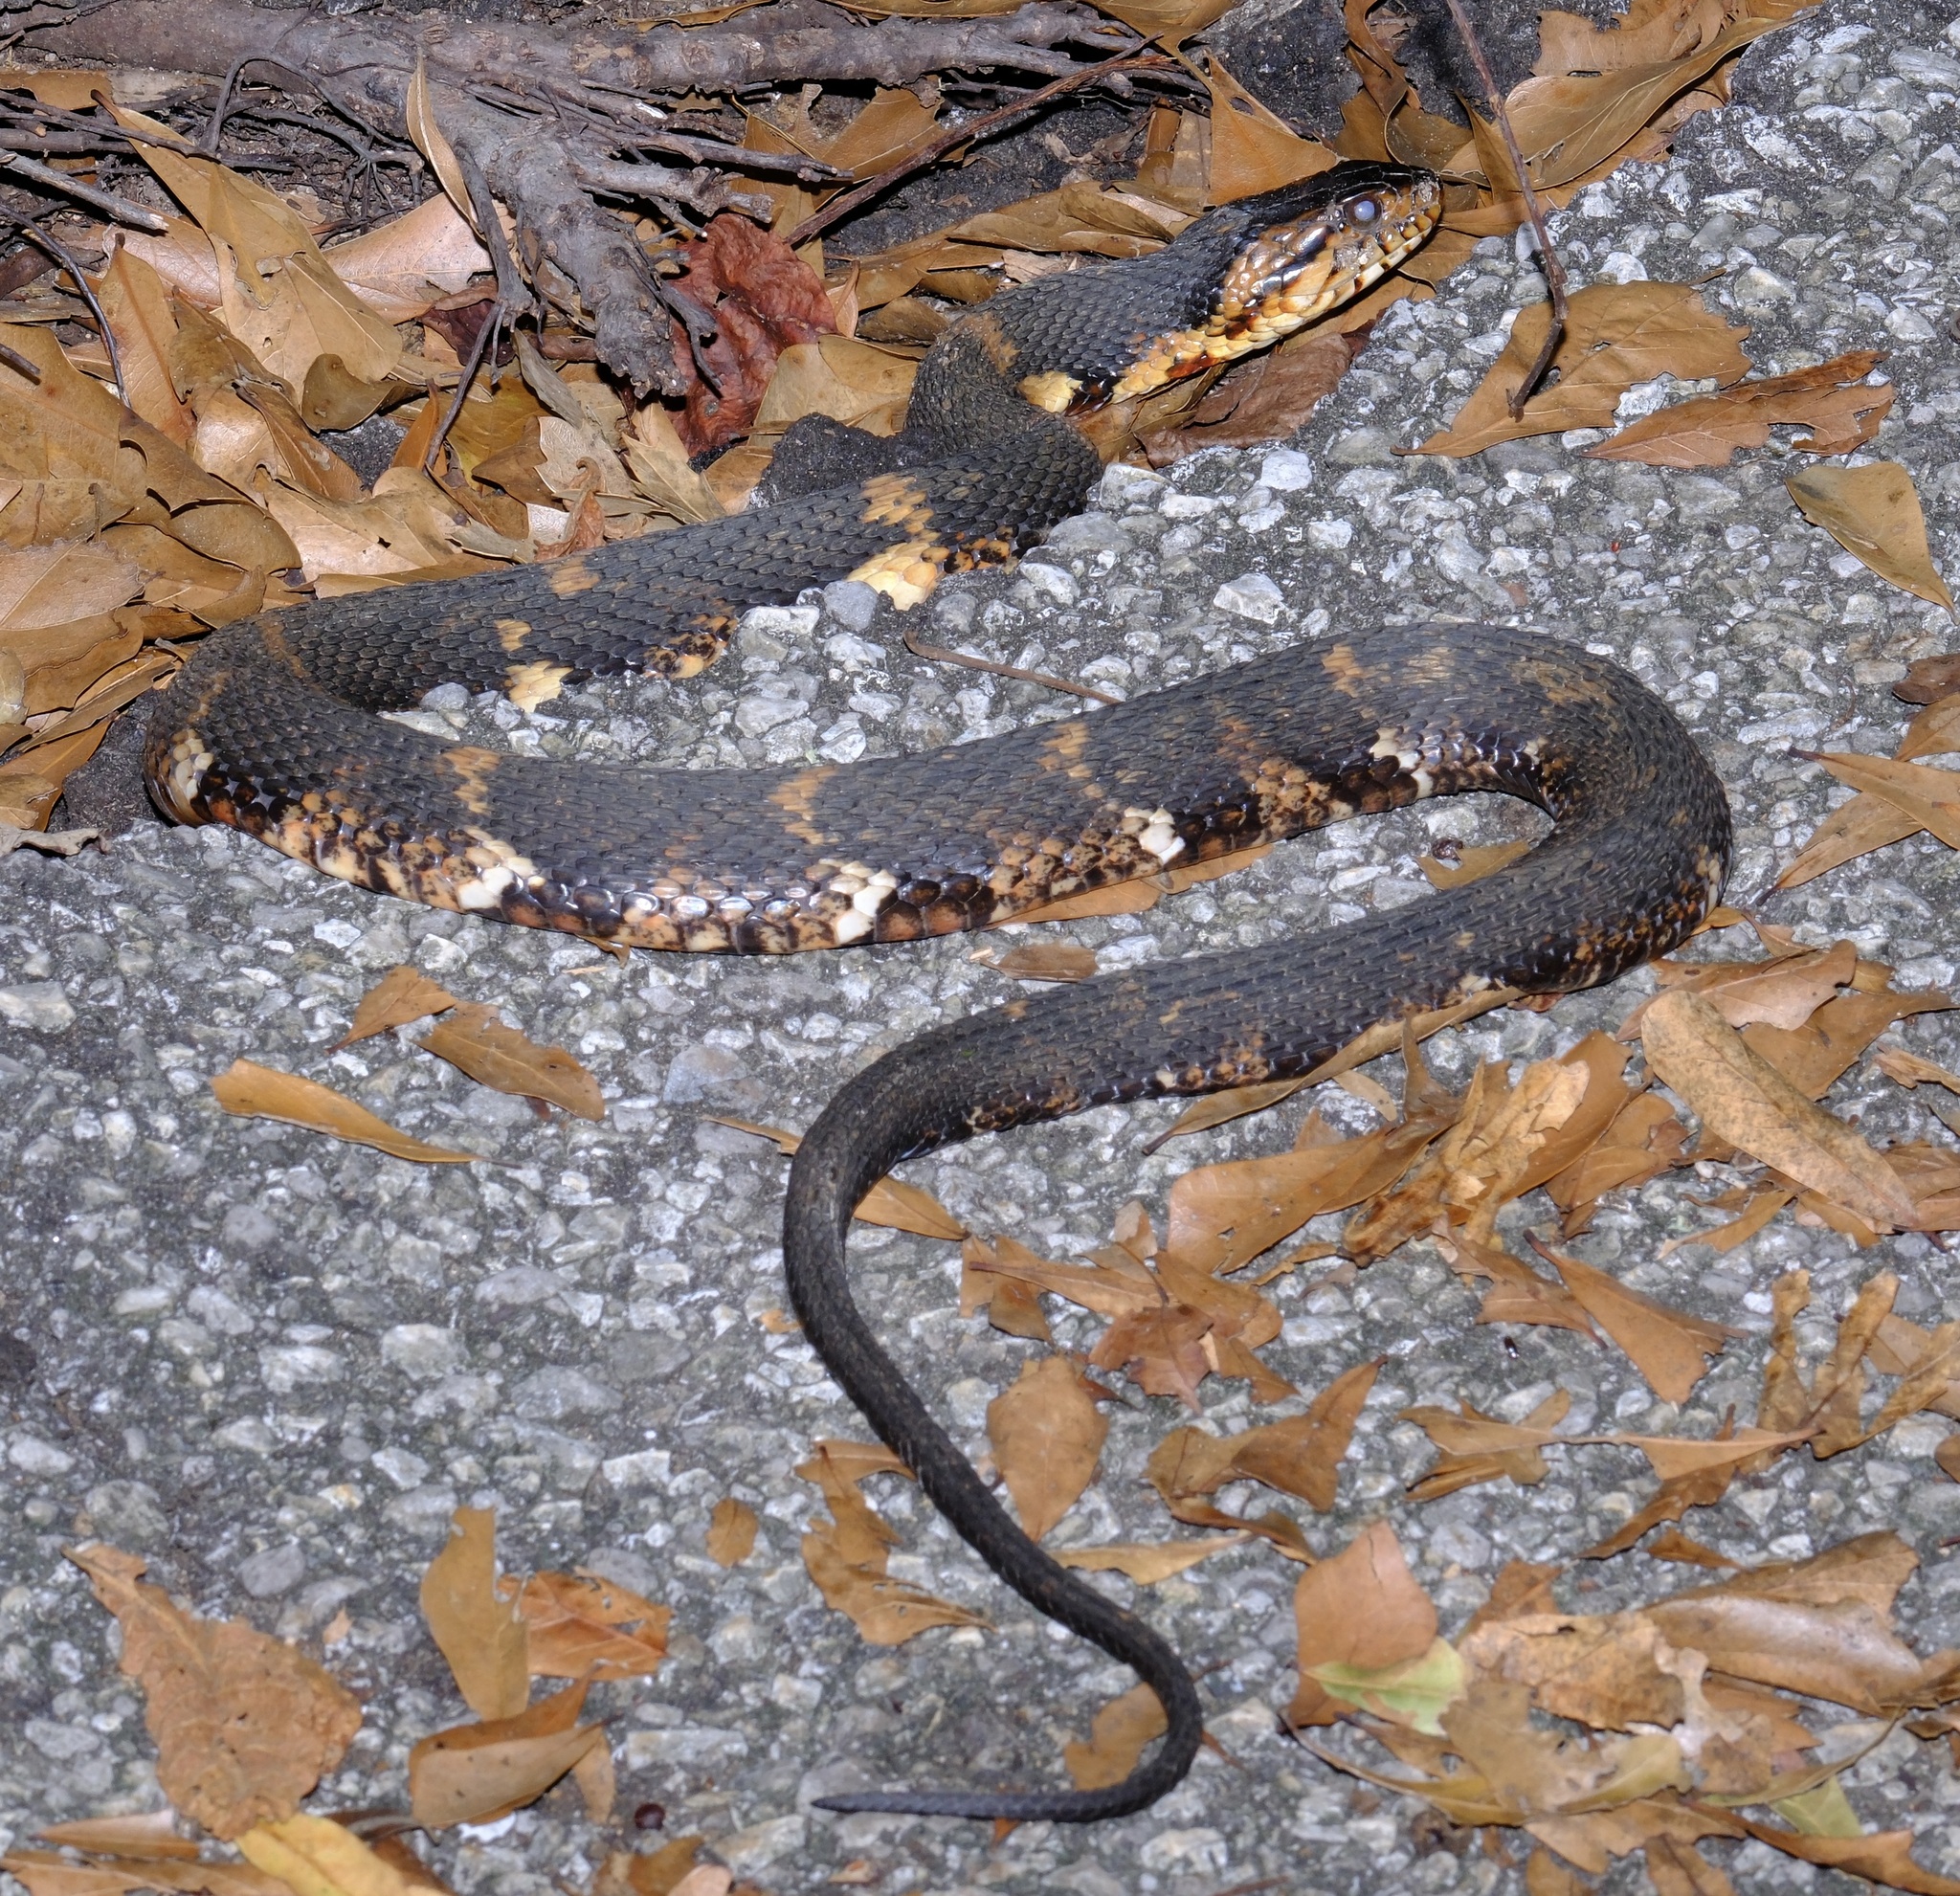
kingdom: Animalia
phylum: Chordata
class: Squamata
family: Colubridae
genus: Nerodia
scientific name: Nerodia fasciata
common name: Southern water snake
